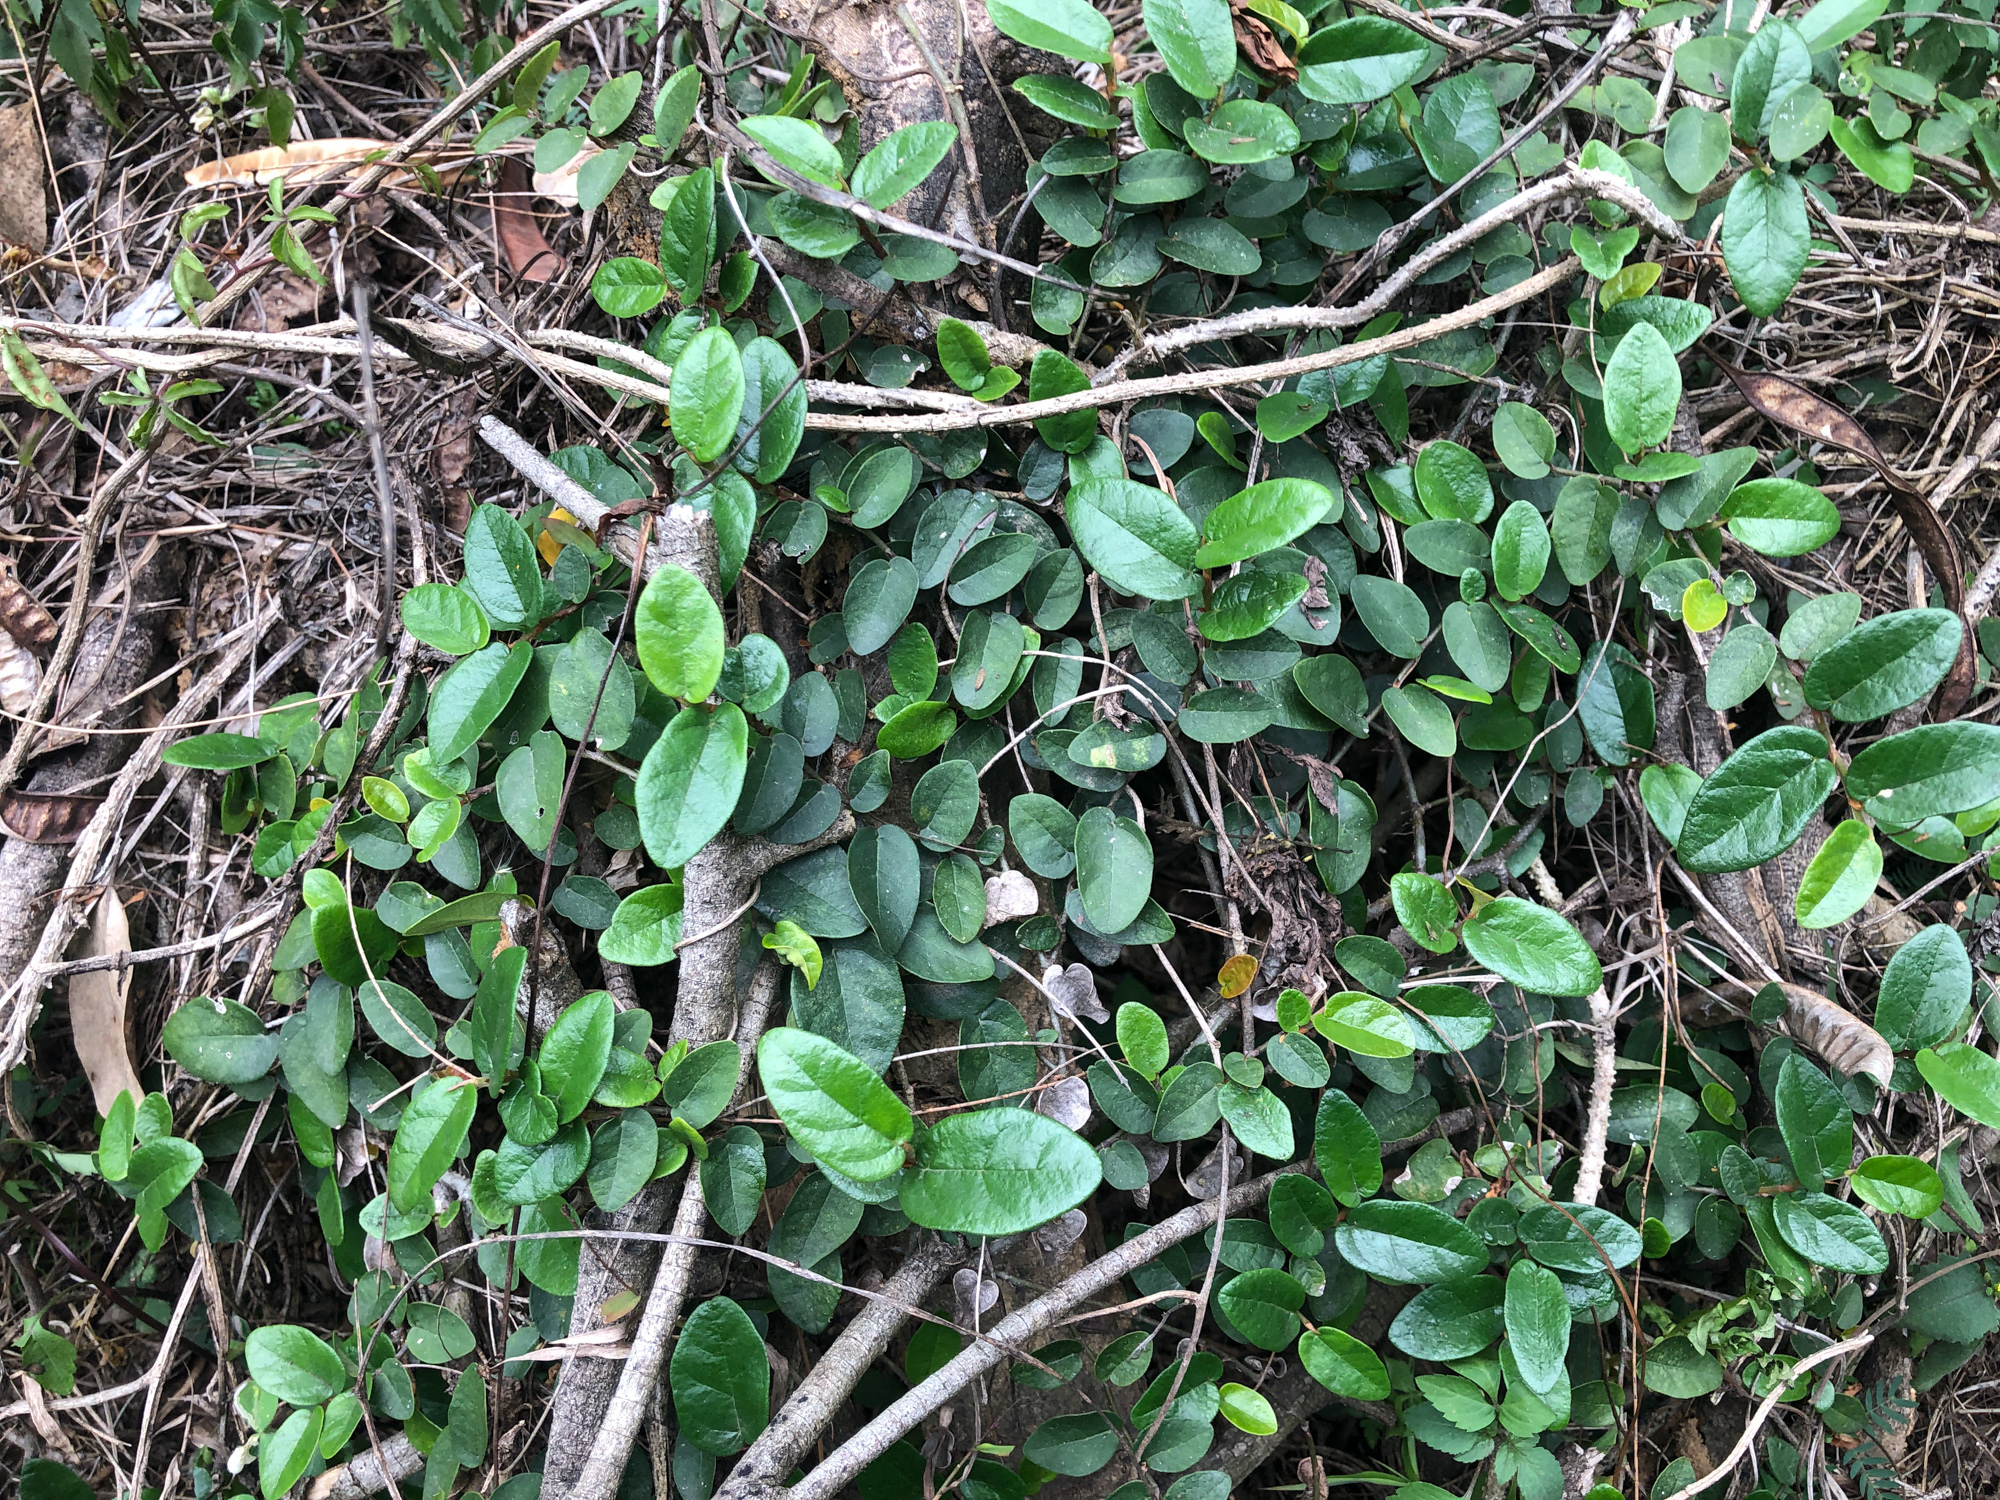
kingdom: Plantae
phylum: Tracheophyta
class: Magnoliopsida
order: Rosales
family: Moraceae
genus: Ficus
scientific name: Ficus pumila
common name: Climbingfig
